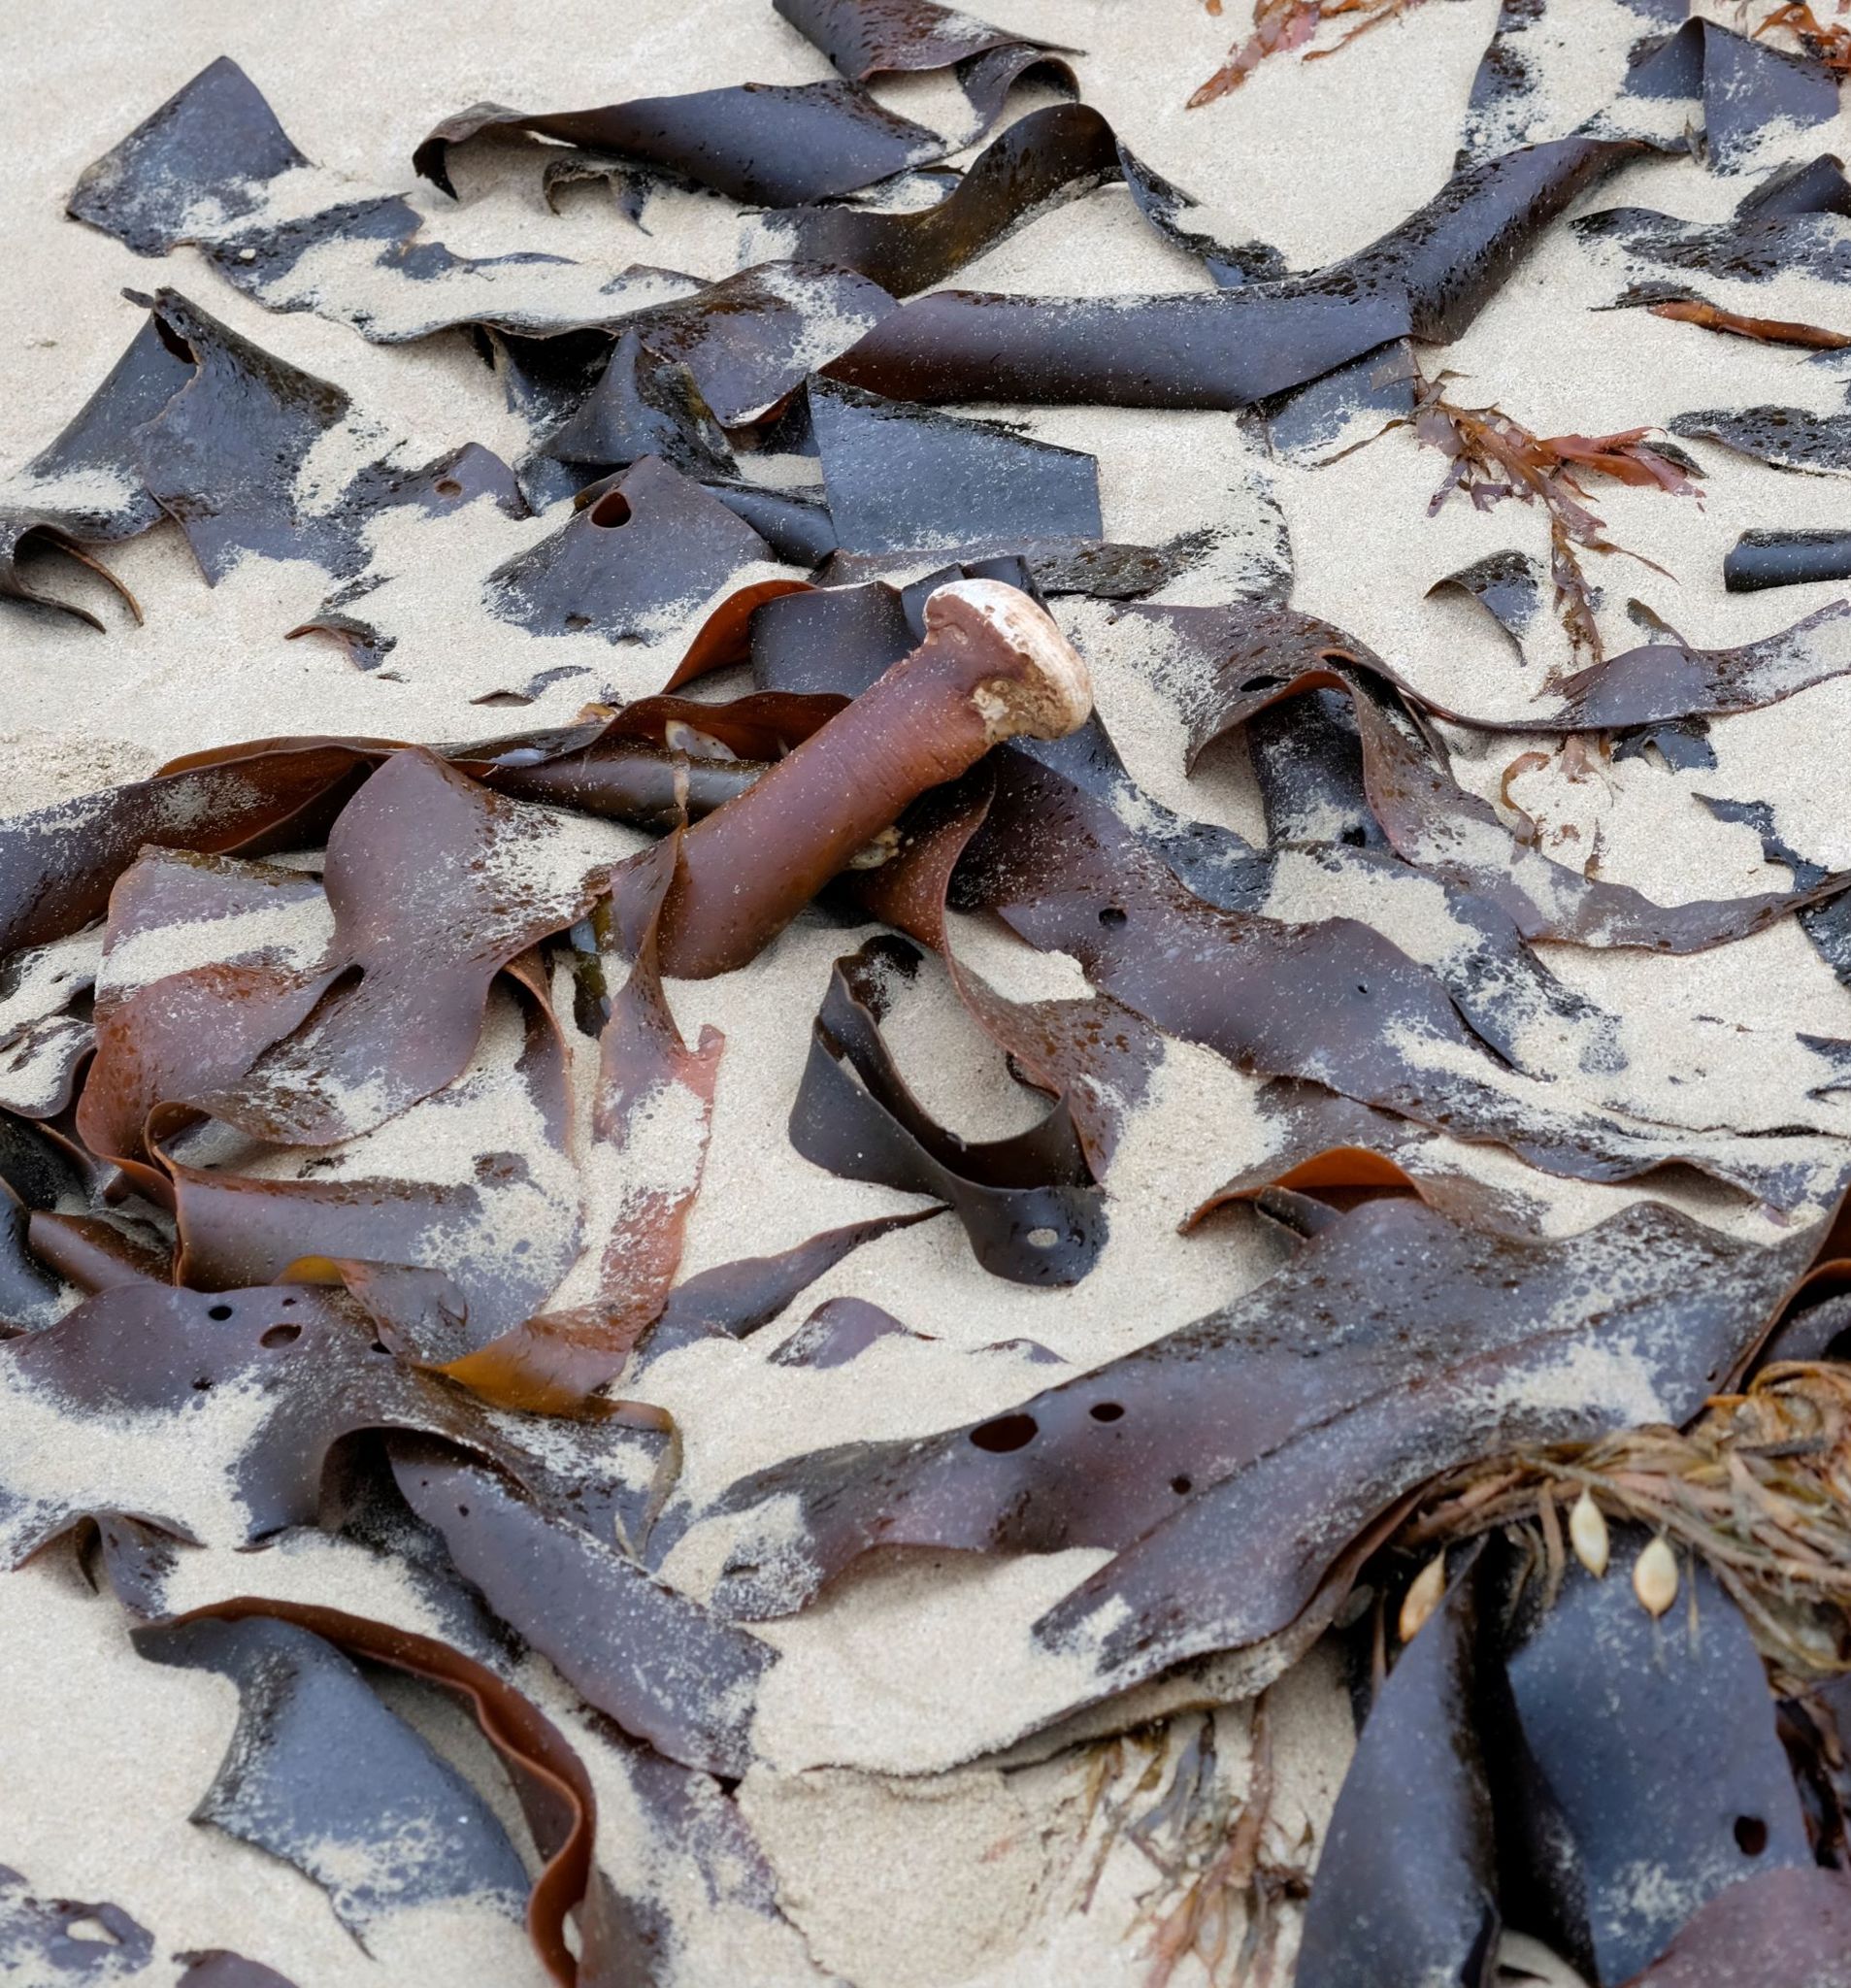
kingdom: Chromista
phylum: Ochrophyta
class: Phaeophyceae
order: Fucales
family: Durvillaeaceae
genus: Durvillaea
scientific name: Durvillaea
